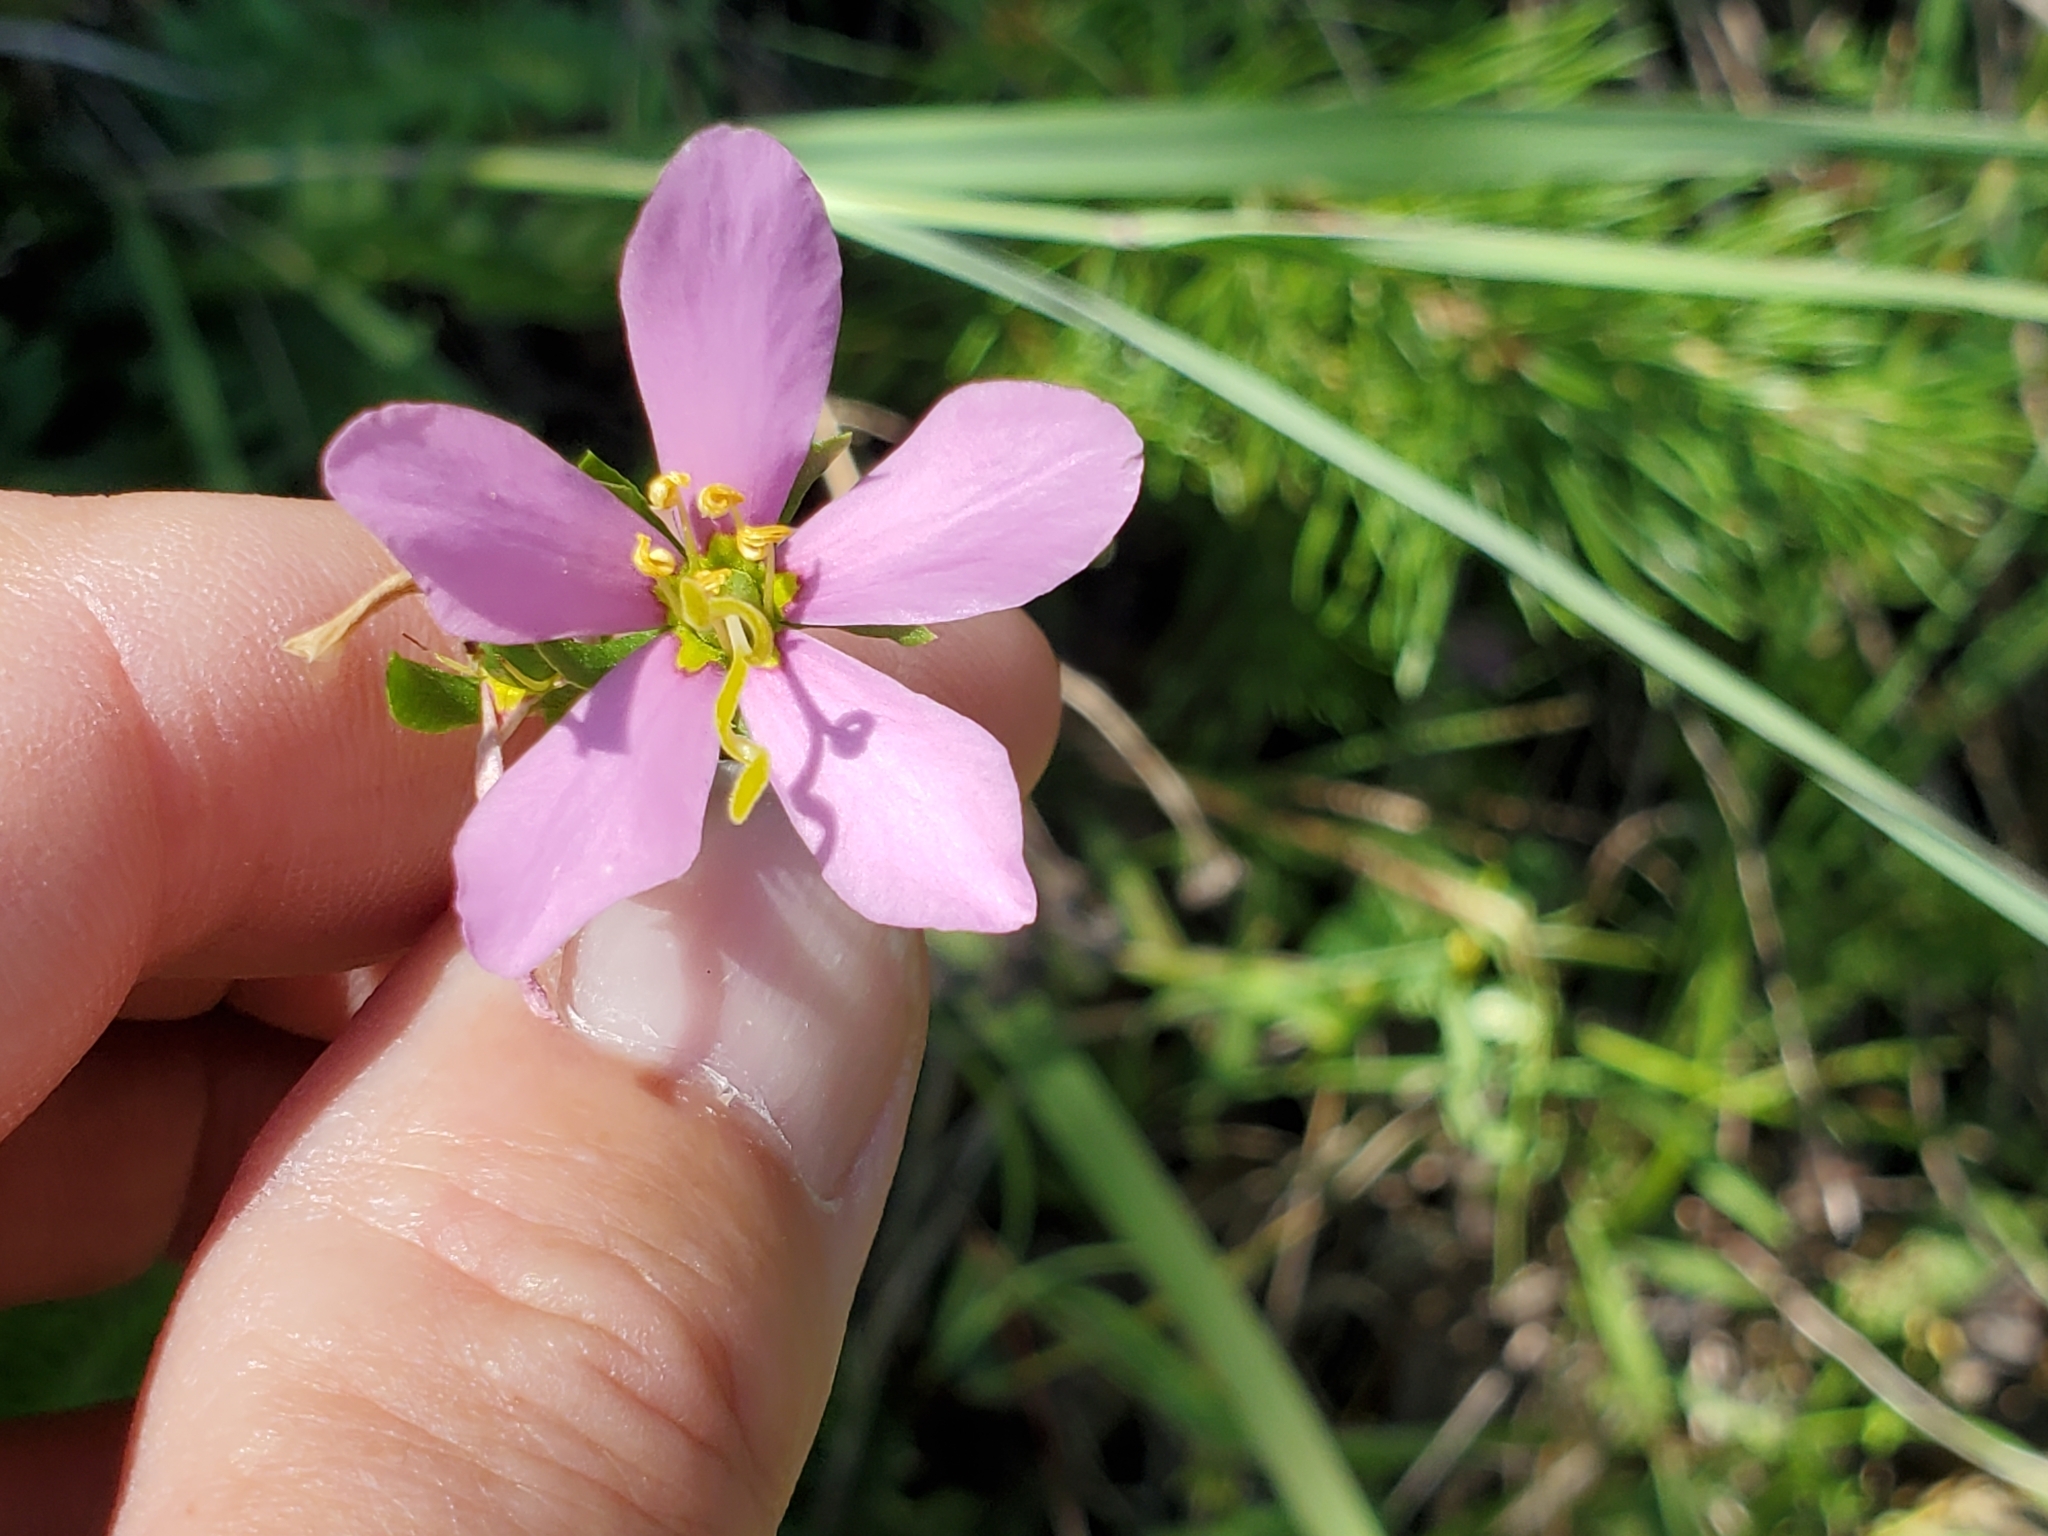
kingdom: Plantae
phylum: Tracheophyta
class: Magnoliopsida
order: Gentianales
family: Gentianaceae
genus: Sabatia
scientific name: Sabatia angularis
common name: Rose-pink
